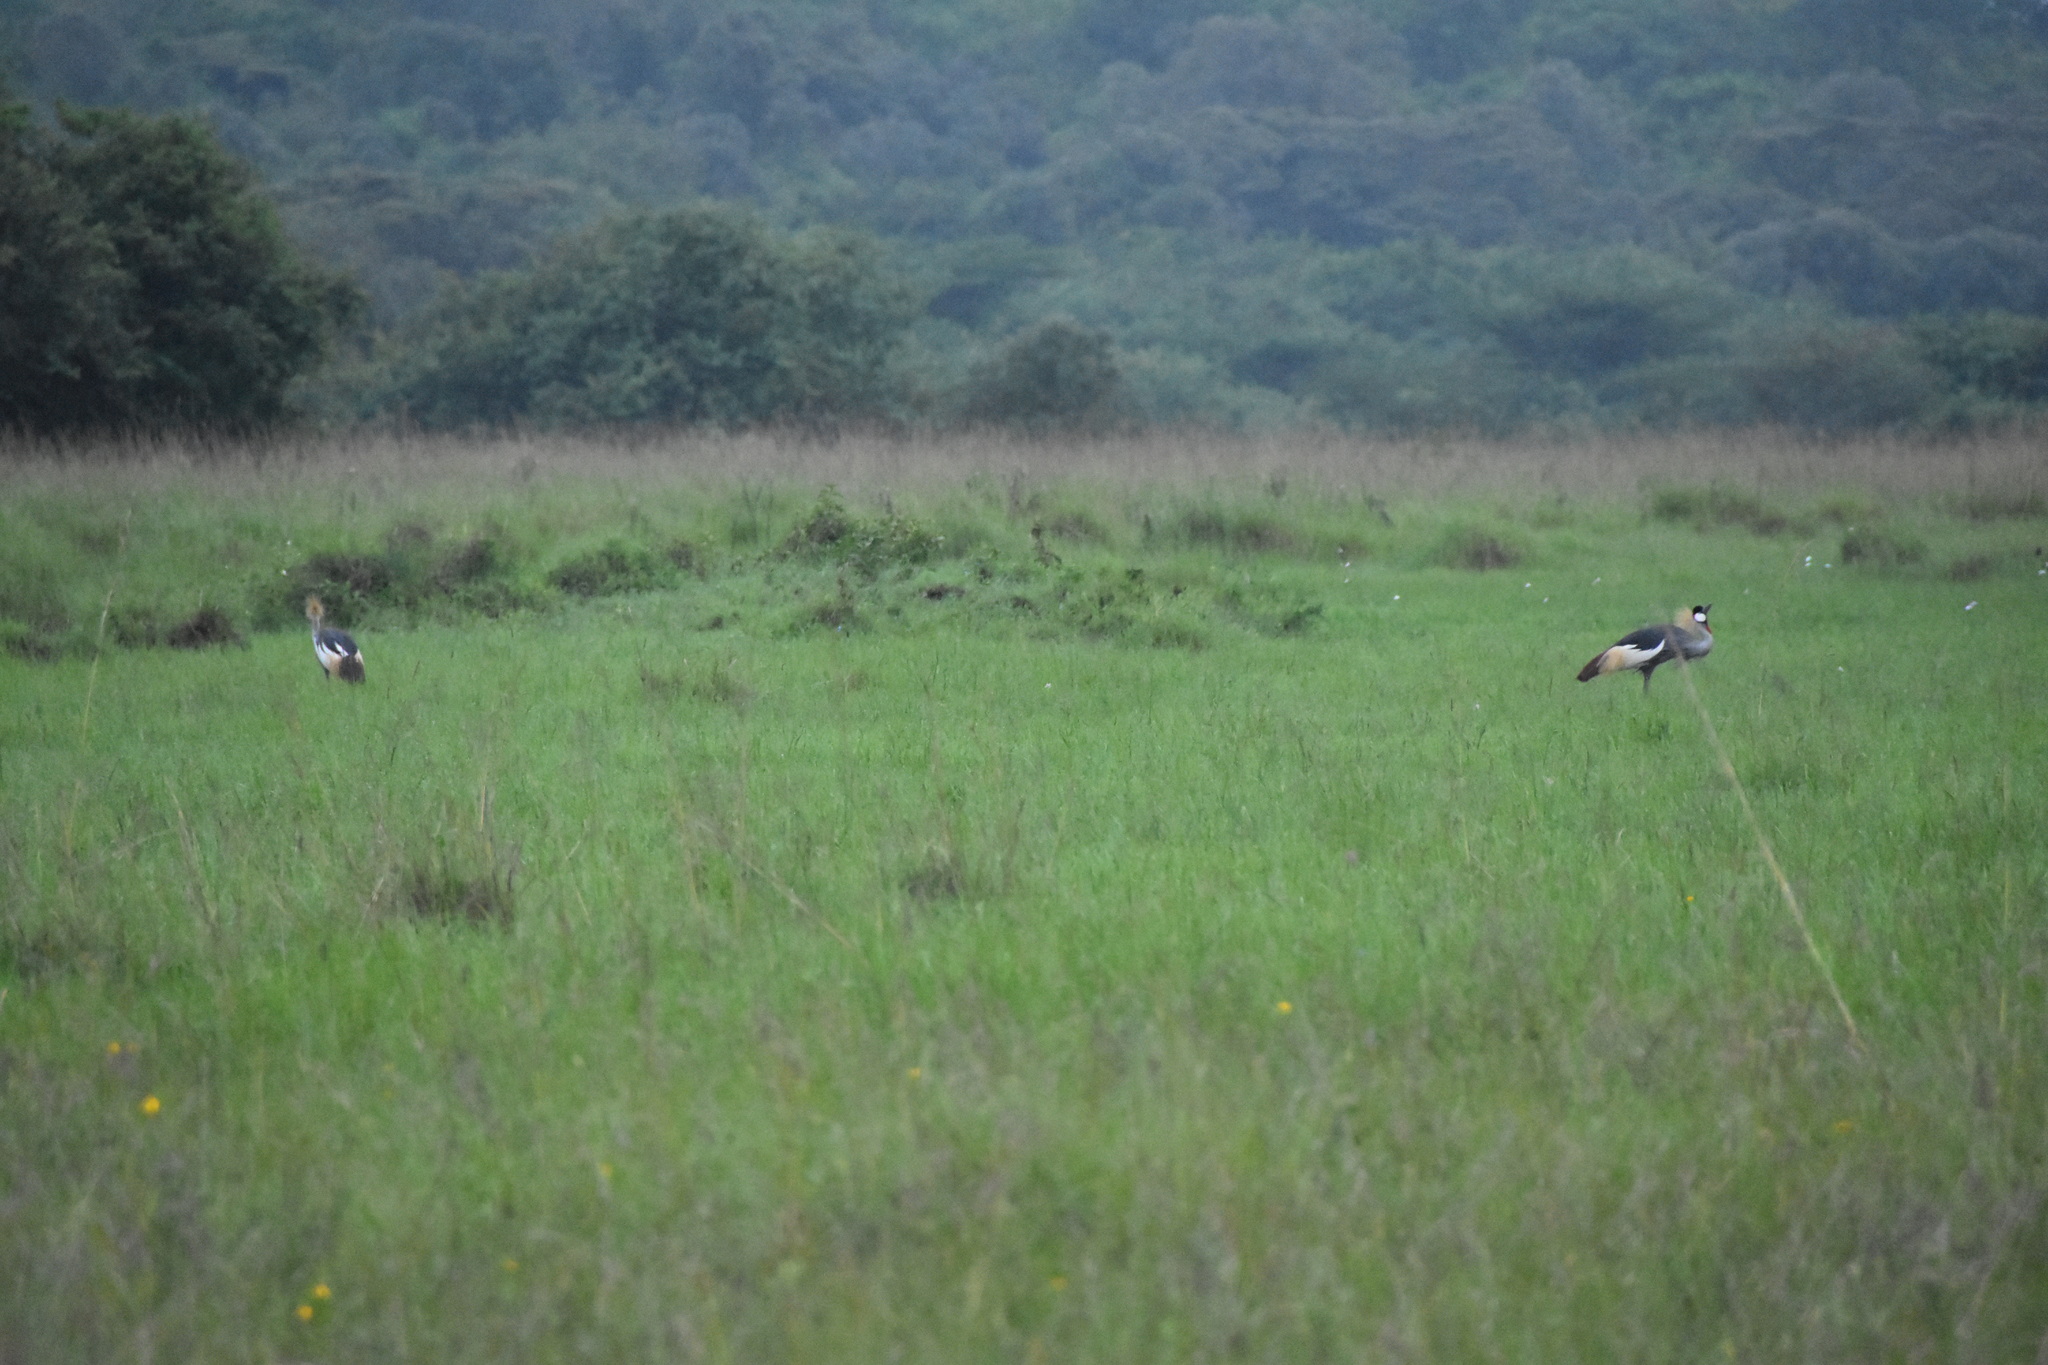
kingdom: Animalia
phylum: Chordata
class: Aves
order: Gruiformes
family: Gruidae
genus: Balearica
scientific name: Balearica regulorum
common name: Grey crowned crane
